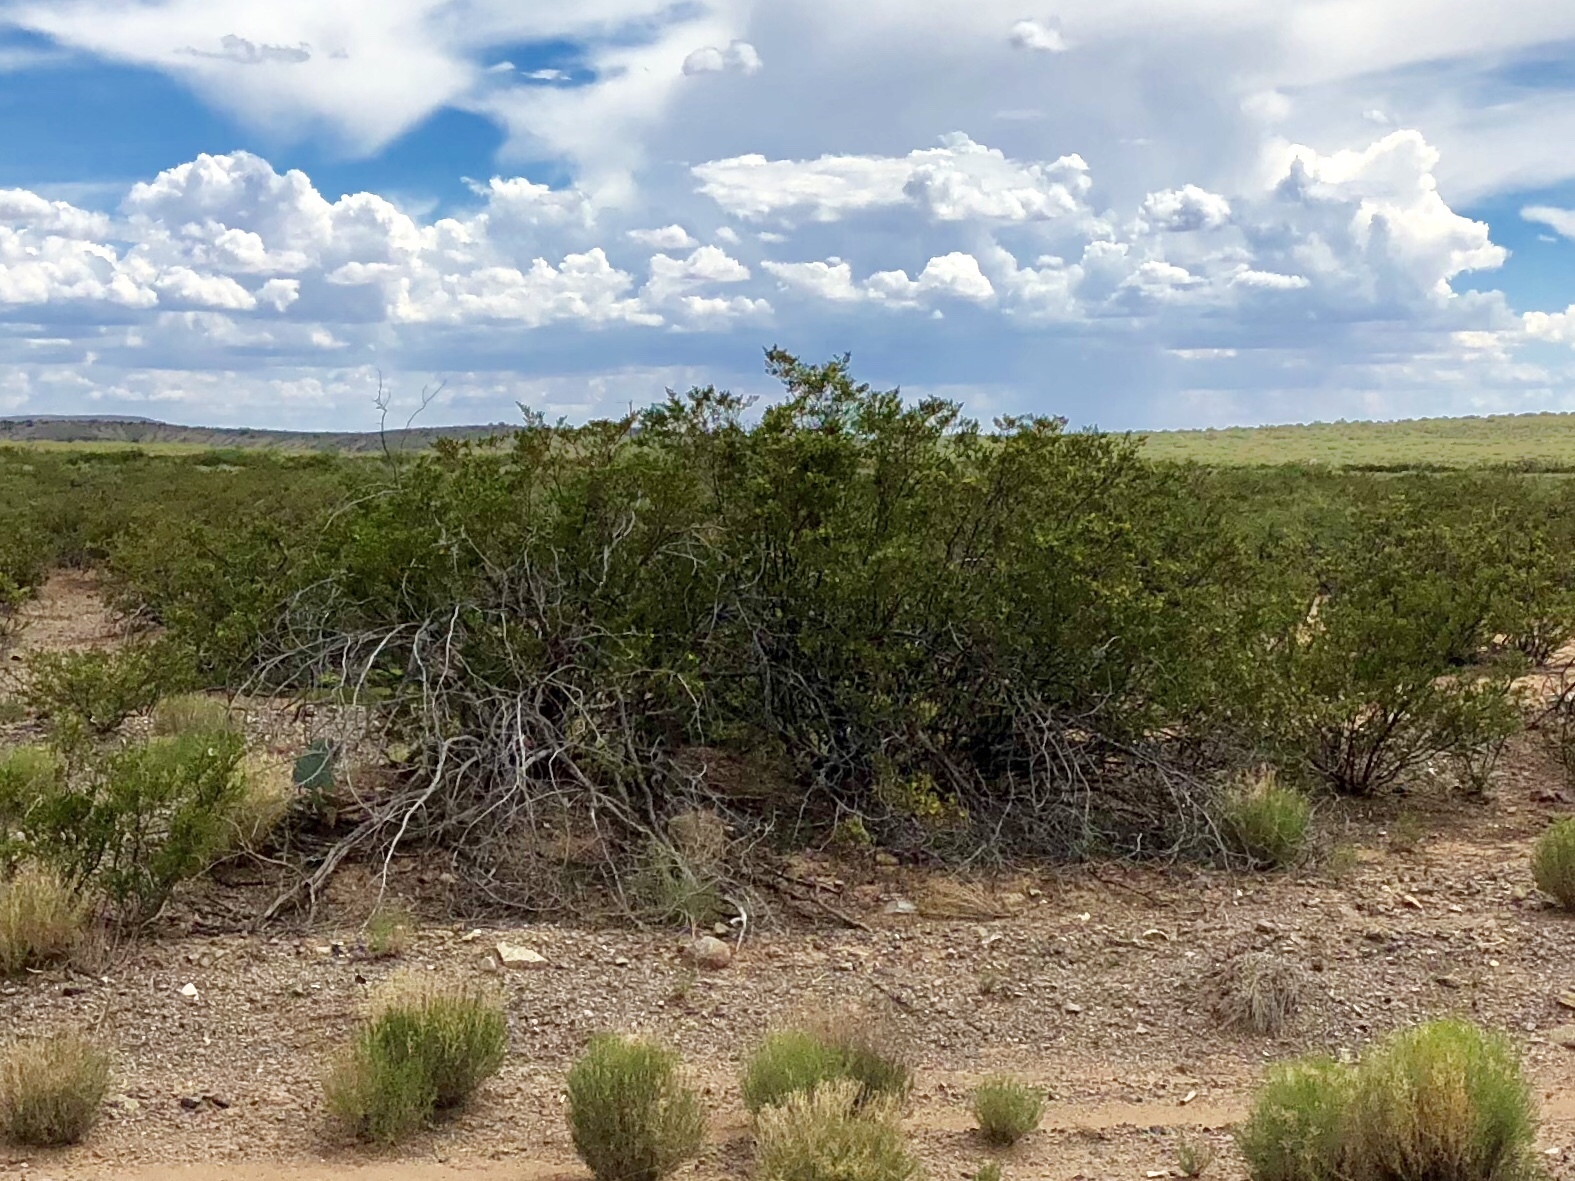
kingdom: Plantae
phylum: Tracheophyta
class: Magnoliopsida
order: Zygophyllales
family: Zygophyllaceae
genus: Larrea
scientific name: Larrea tridentata
